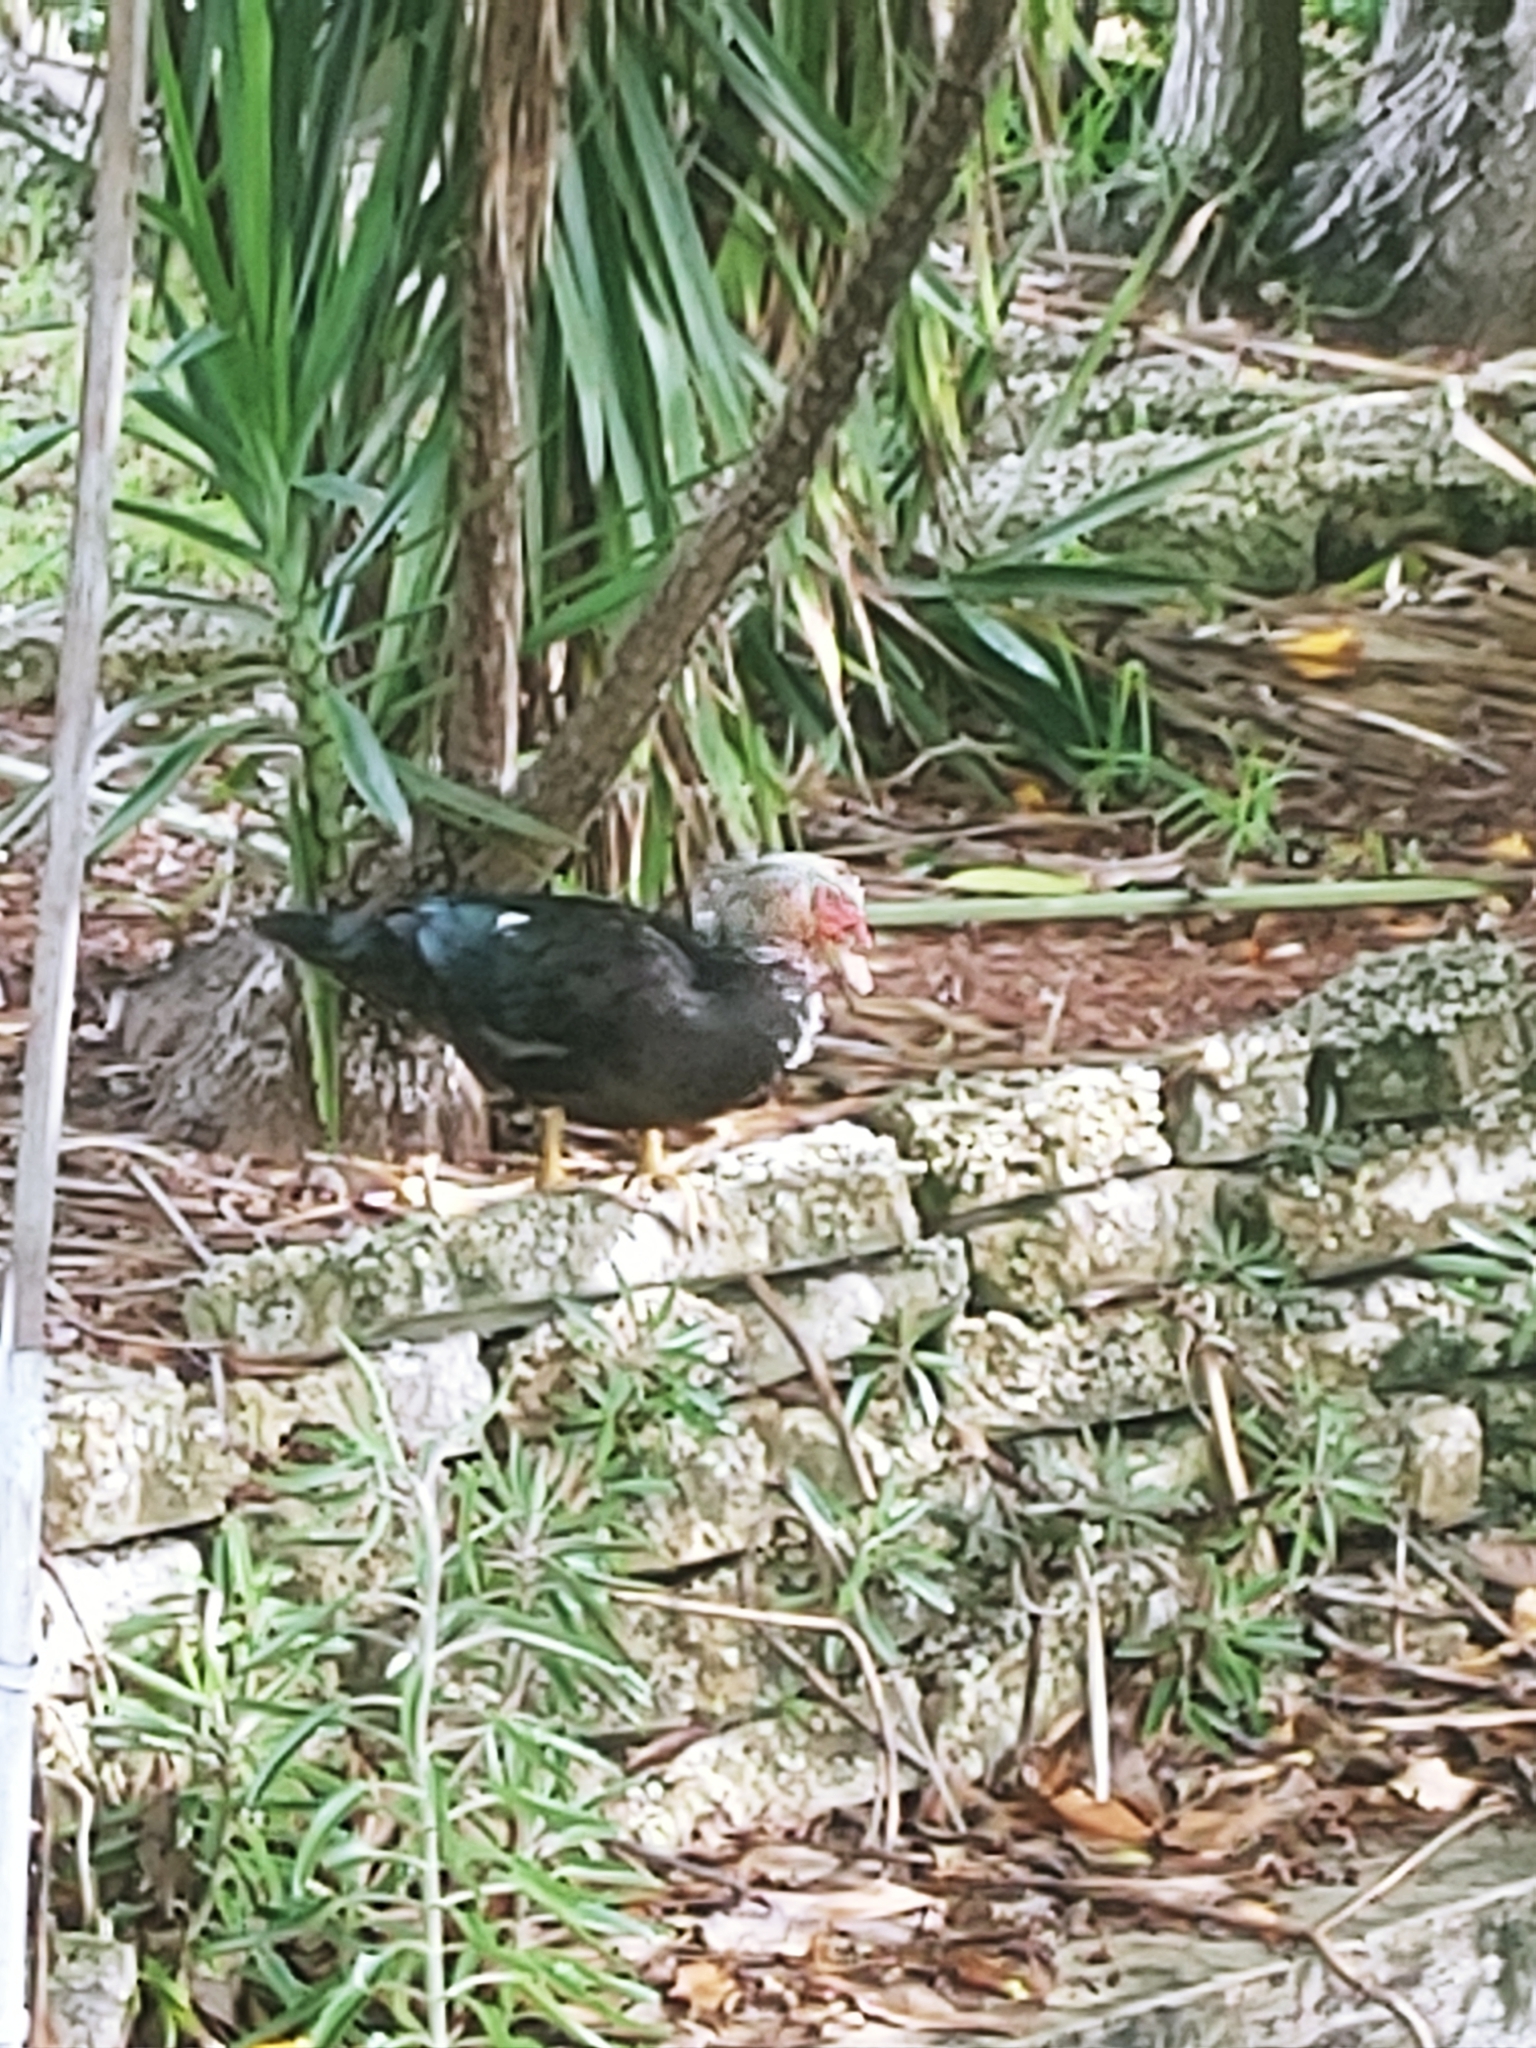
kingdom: Animalia
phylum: Chordata
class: Aves
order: Anseriformes
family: Anatidae
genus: Cairina
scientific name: Cairina moschata
